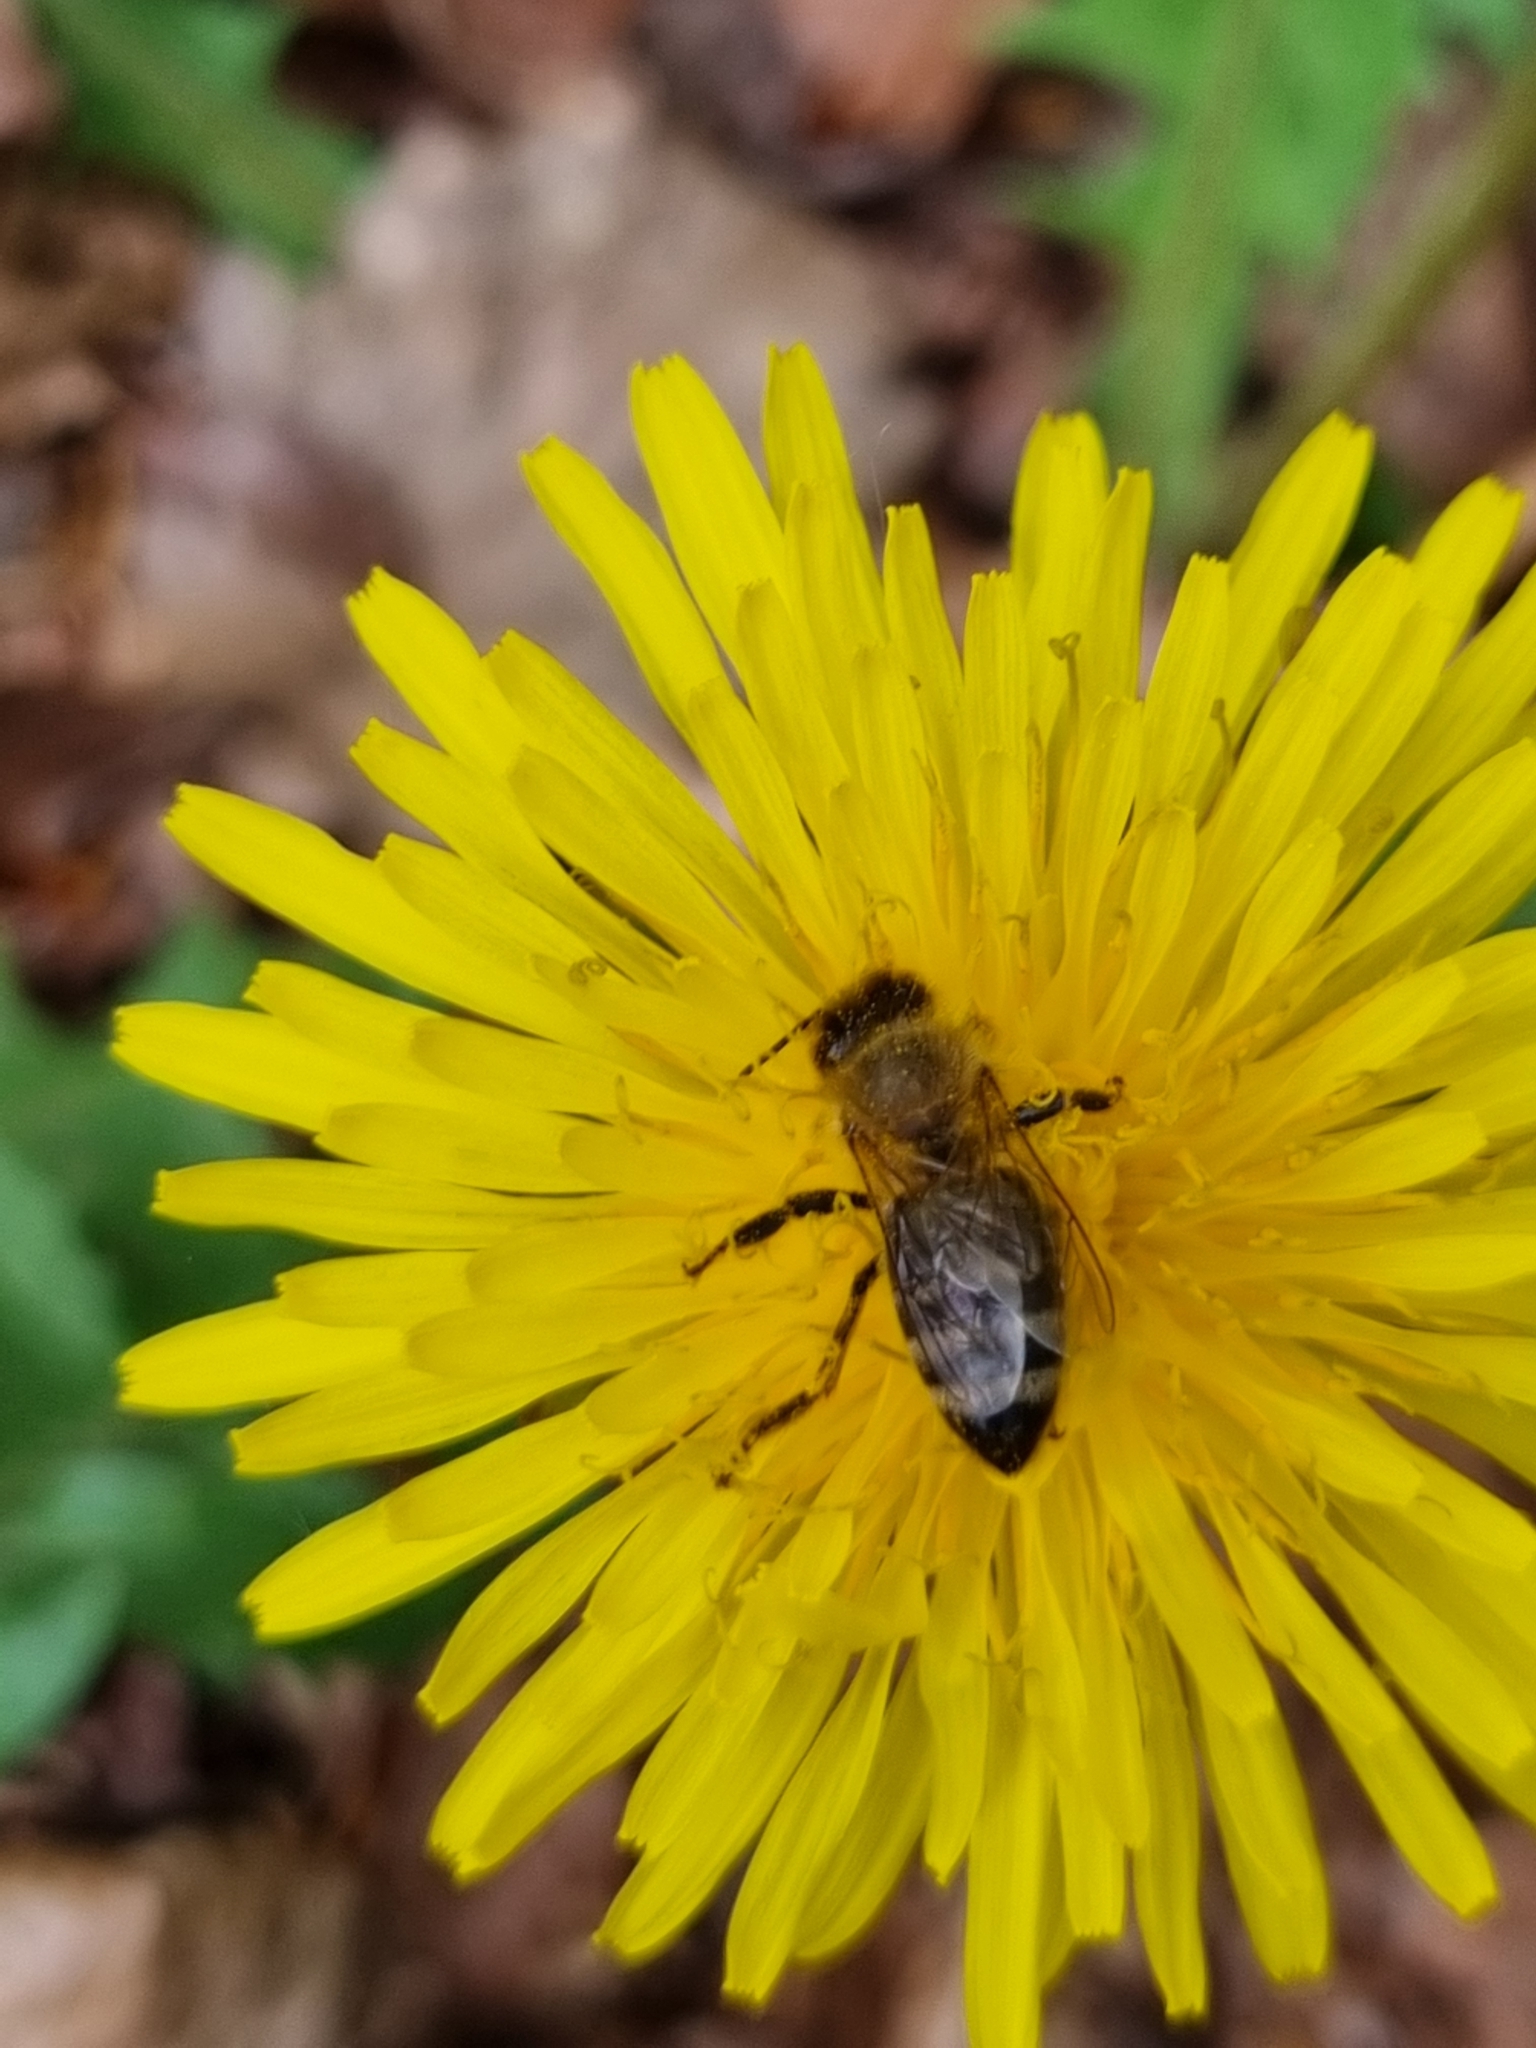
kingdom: Animalia
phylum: Arthropoda
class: Insecta
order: Hymenoptera
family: Apidae
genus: Apis
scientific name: Apis mellifera
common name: Honey bee
